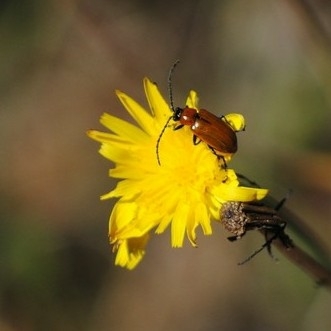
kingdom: Animalia
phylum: Arthropoda
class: Insecta
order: Coleoptera
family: Chrysomelidae
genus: Exosoma
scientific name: Exosoma lusitanicum
